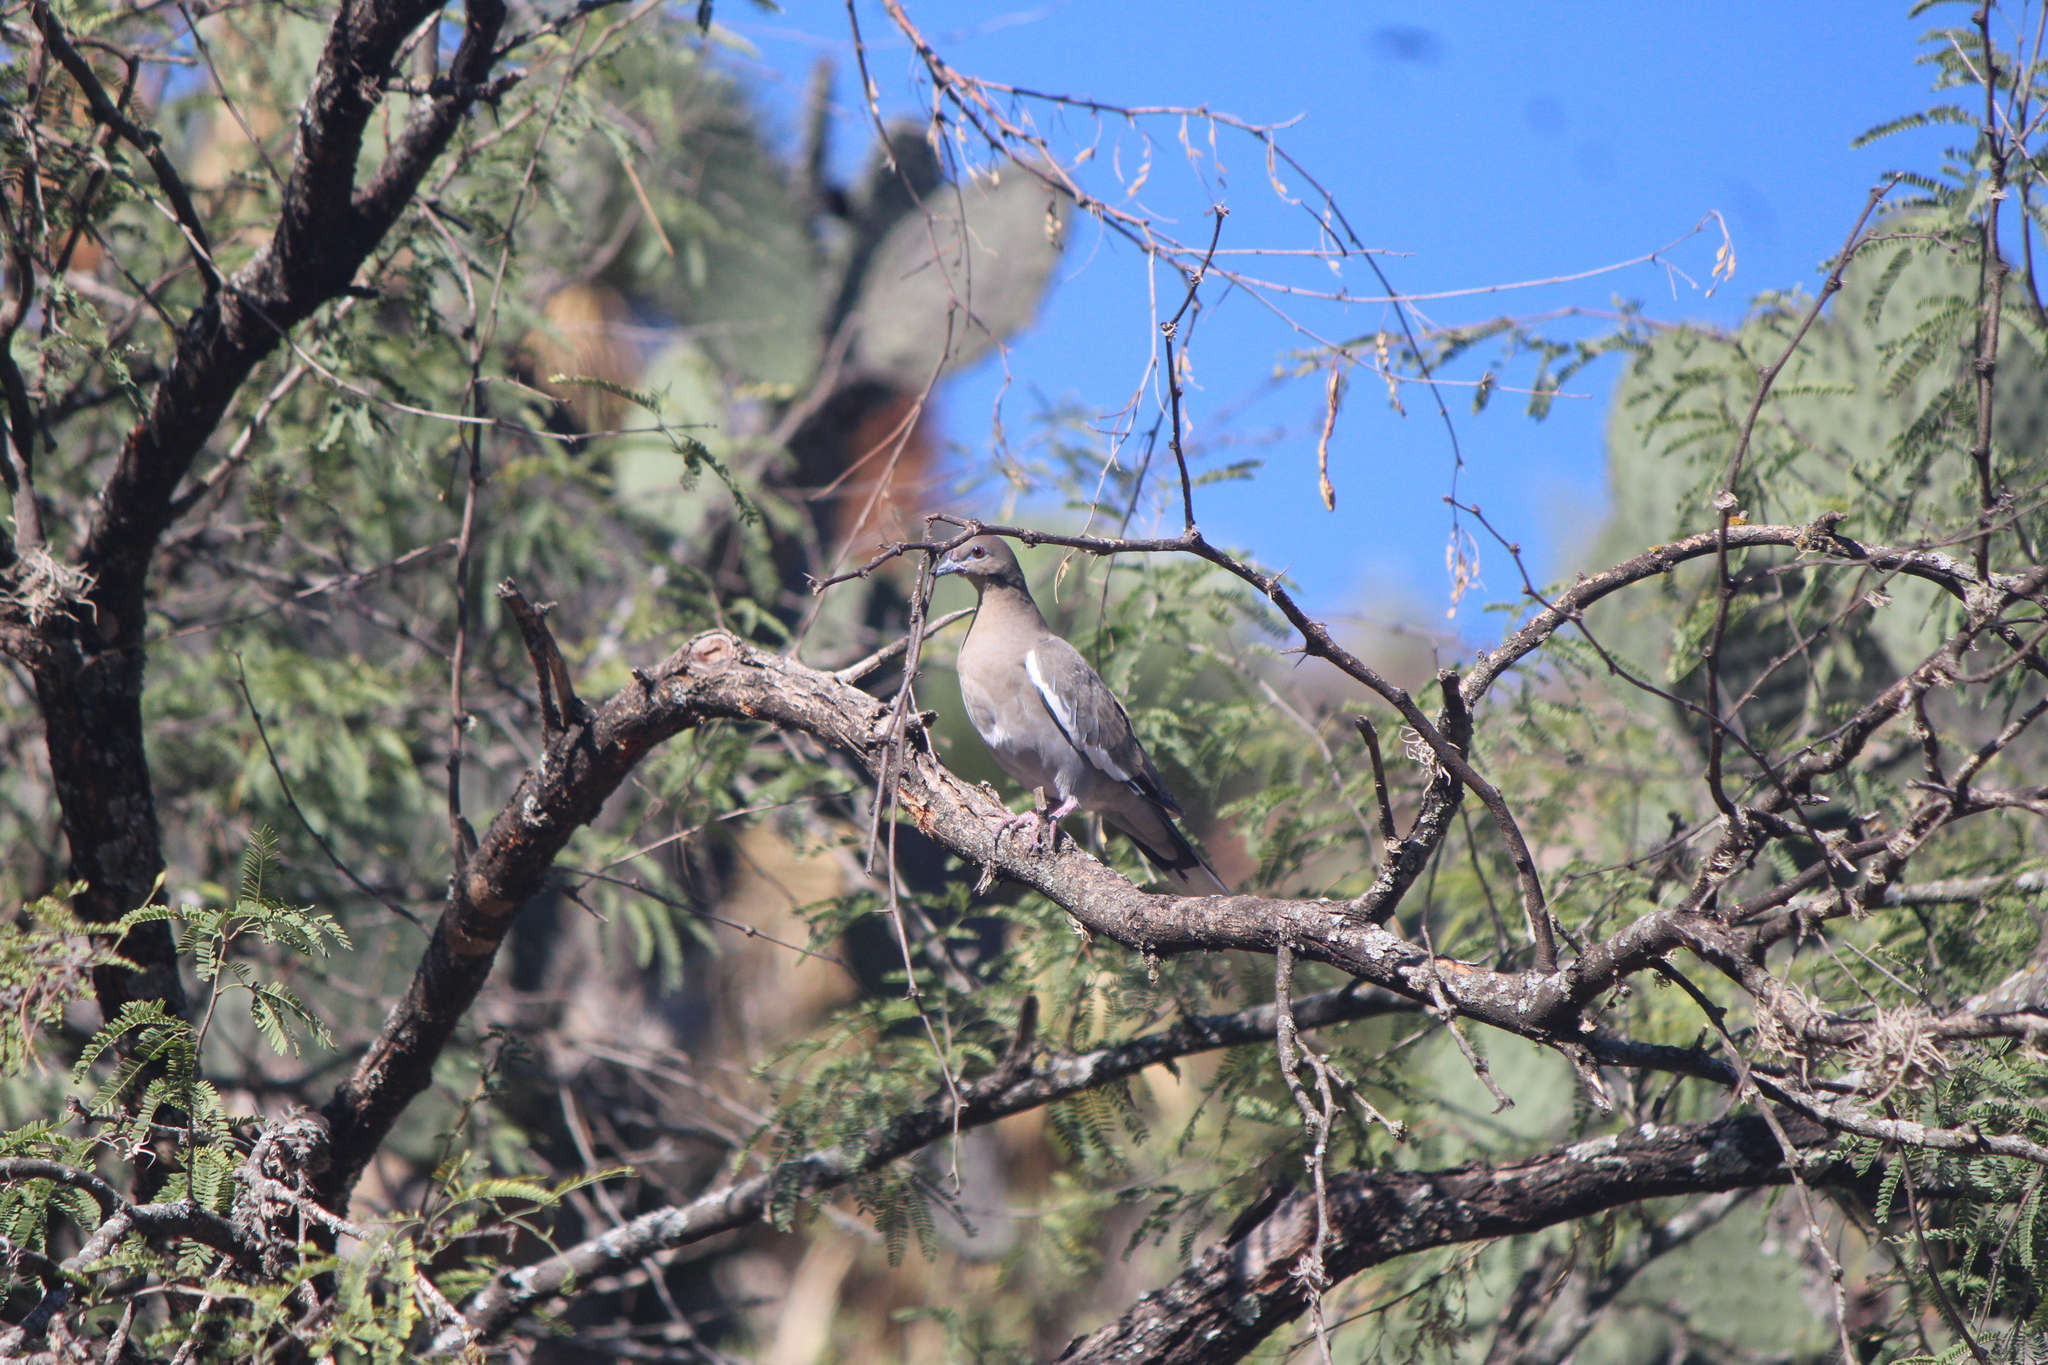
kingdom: Animalia
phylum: Chordata
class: Aves
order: Columbiformes
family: Columbidae
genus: Zenaida
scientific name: Zenaida asiatica
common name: White-winged dove
